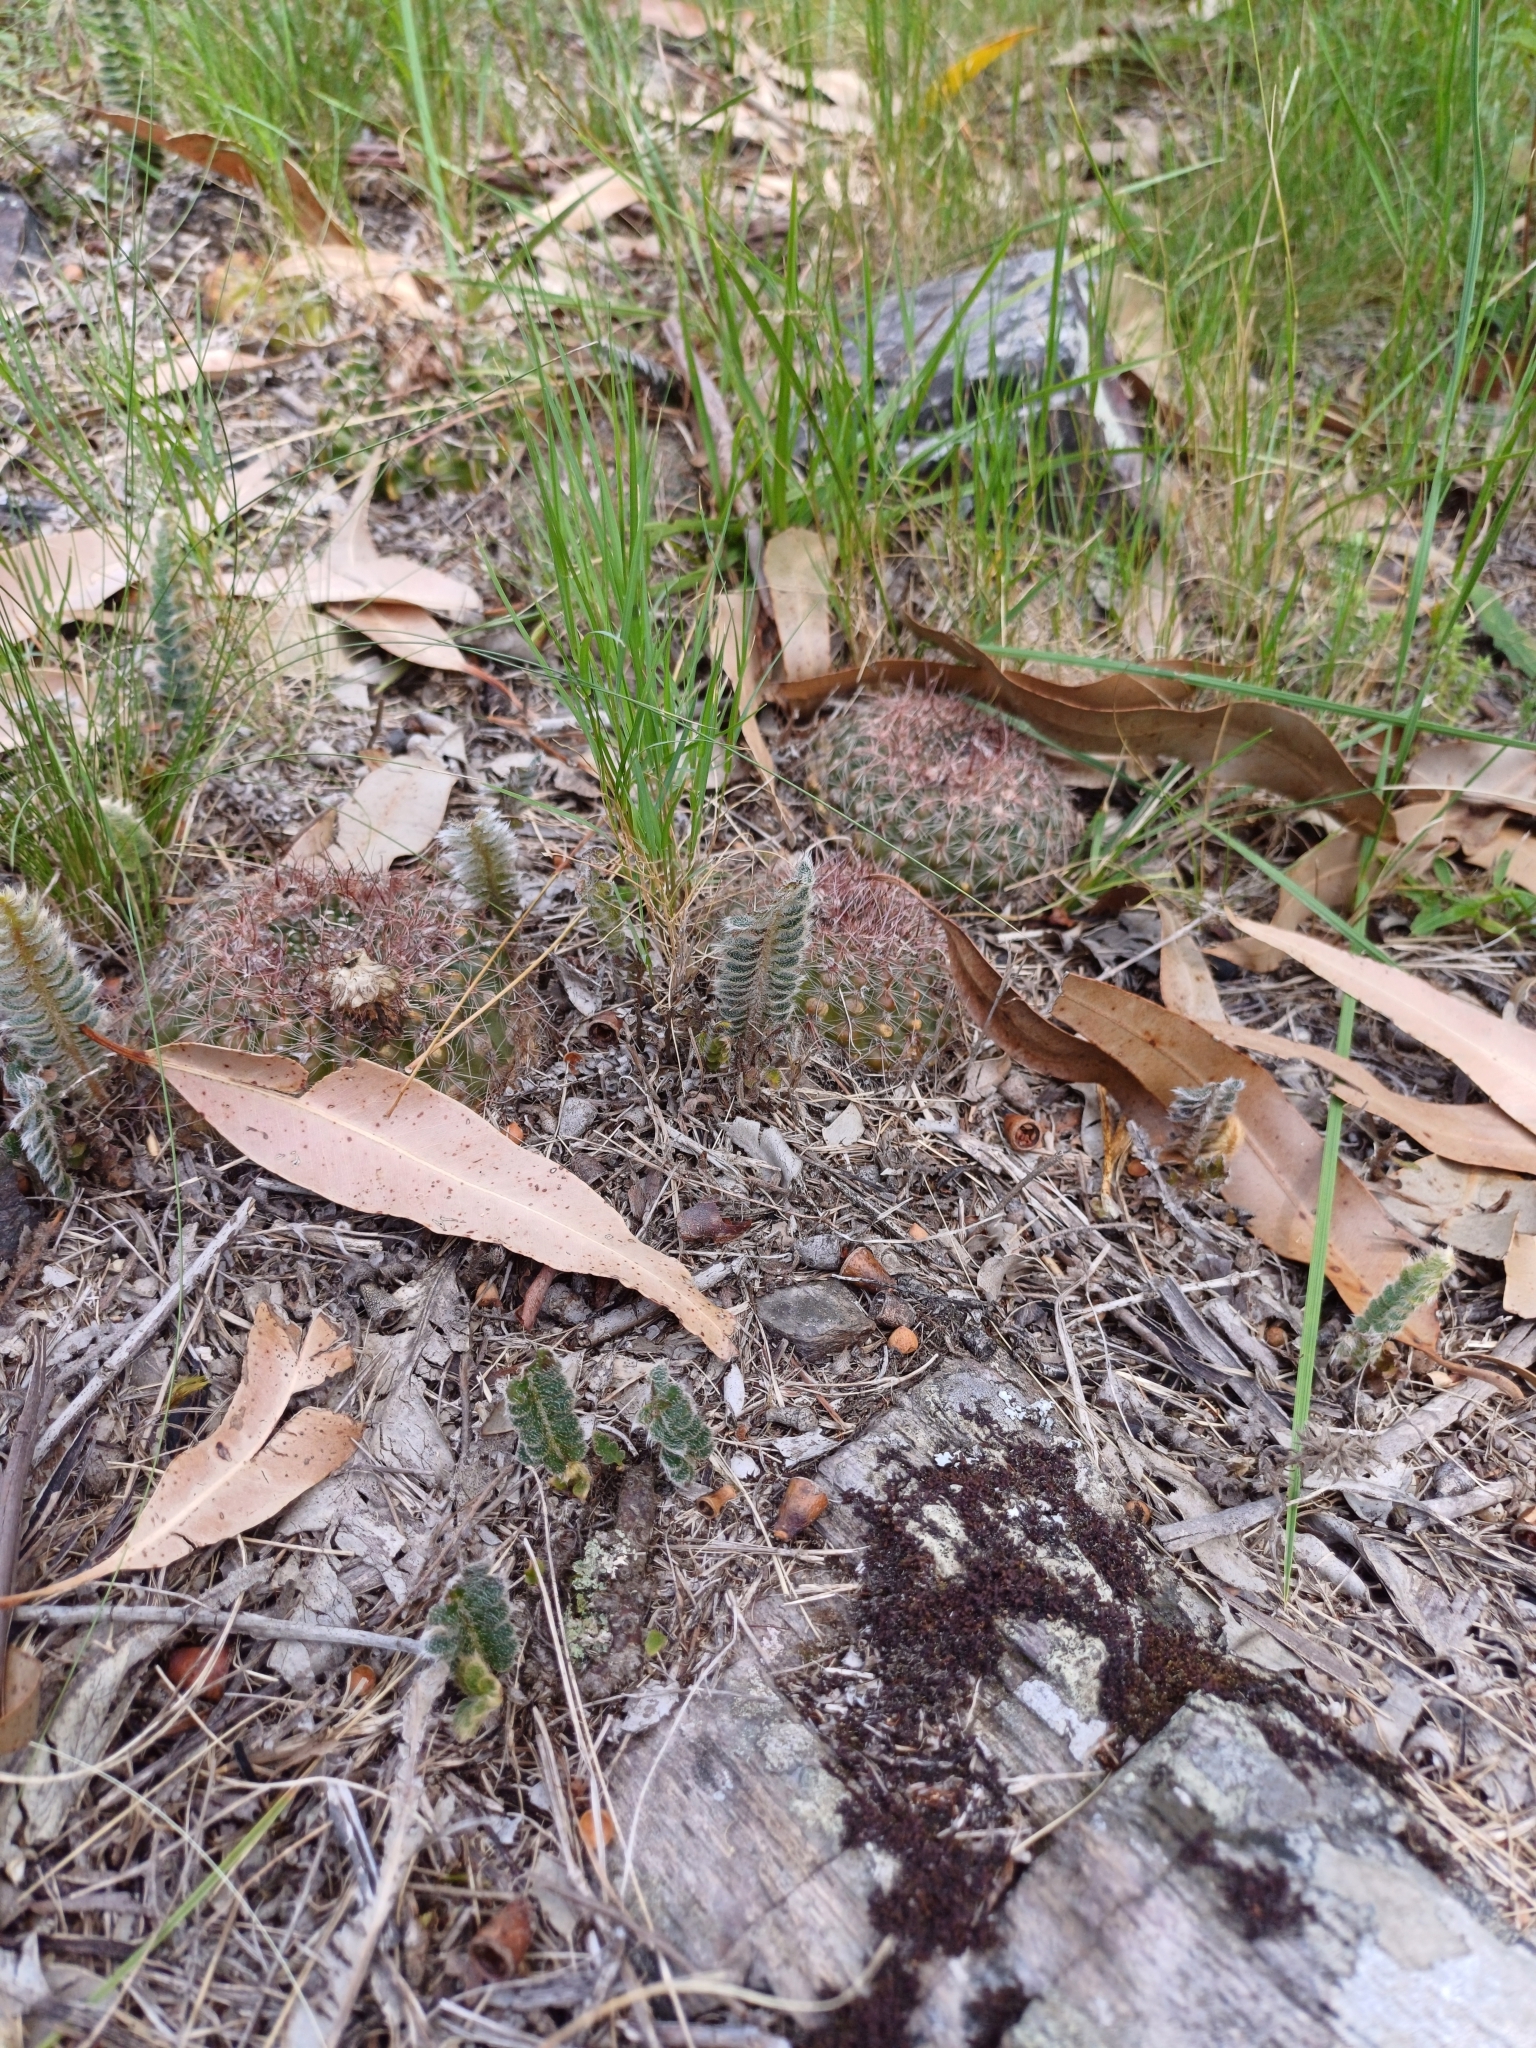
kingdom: Plantae
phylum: Tracheophyta
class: Magnoliopsida
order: Caryophyllales
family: Cactaceae
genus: Parodia
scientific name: Parodia concinna
